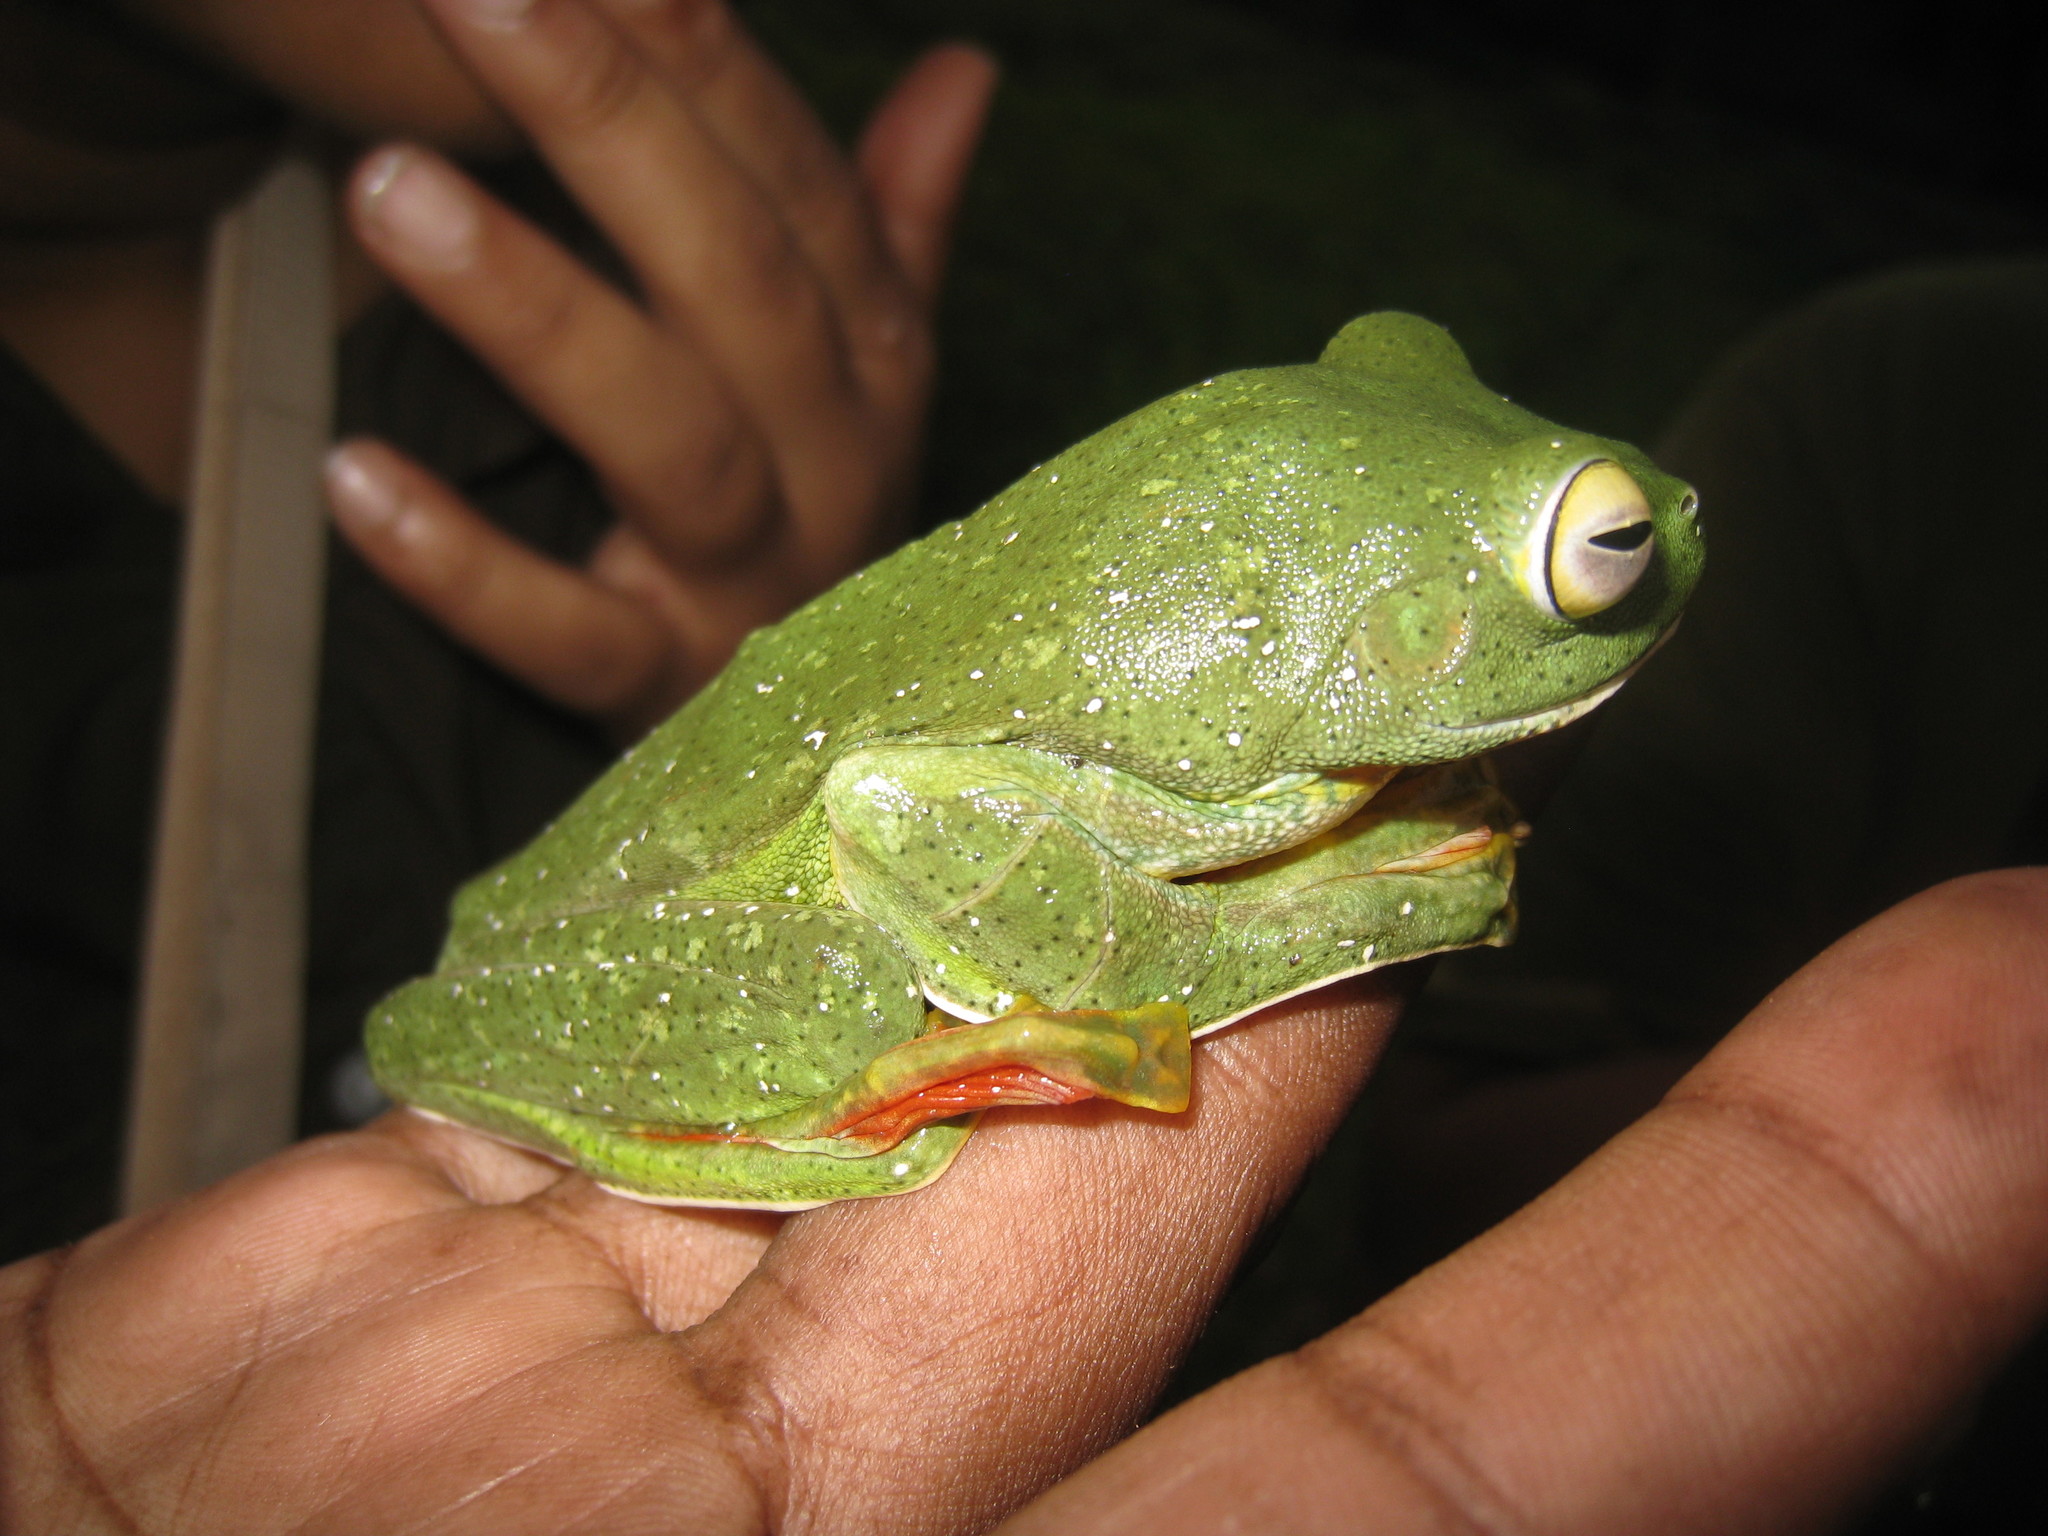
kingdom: Animalia
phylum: Chordata
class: Amphibia
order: Anura
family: Rhacophoridae
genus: Rhacophorus
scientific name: Rhacophorus malabaricus
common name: Malabar gliding frog
